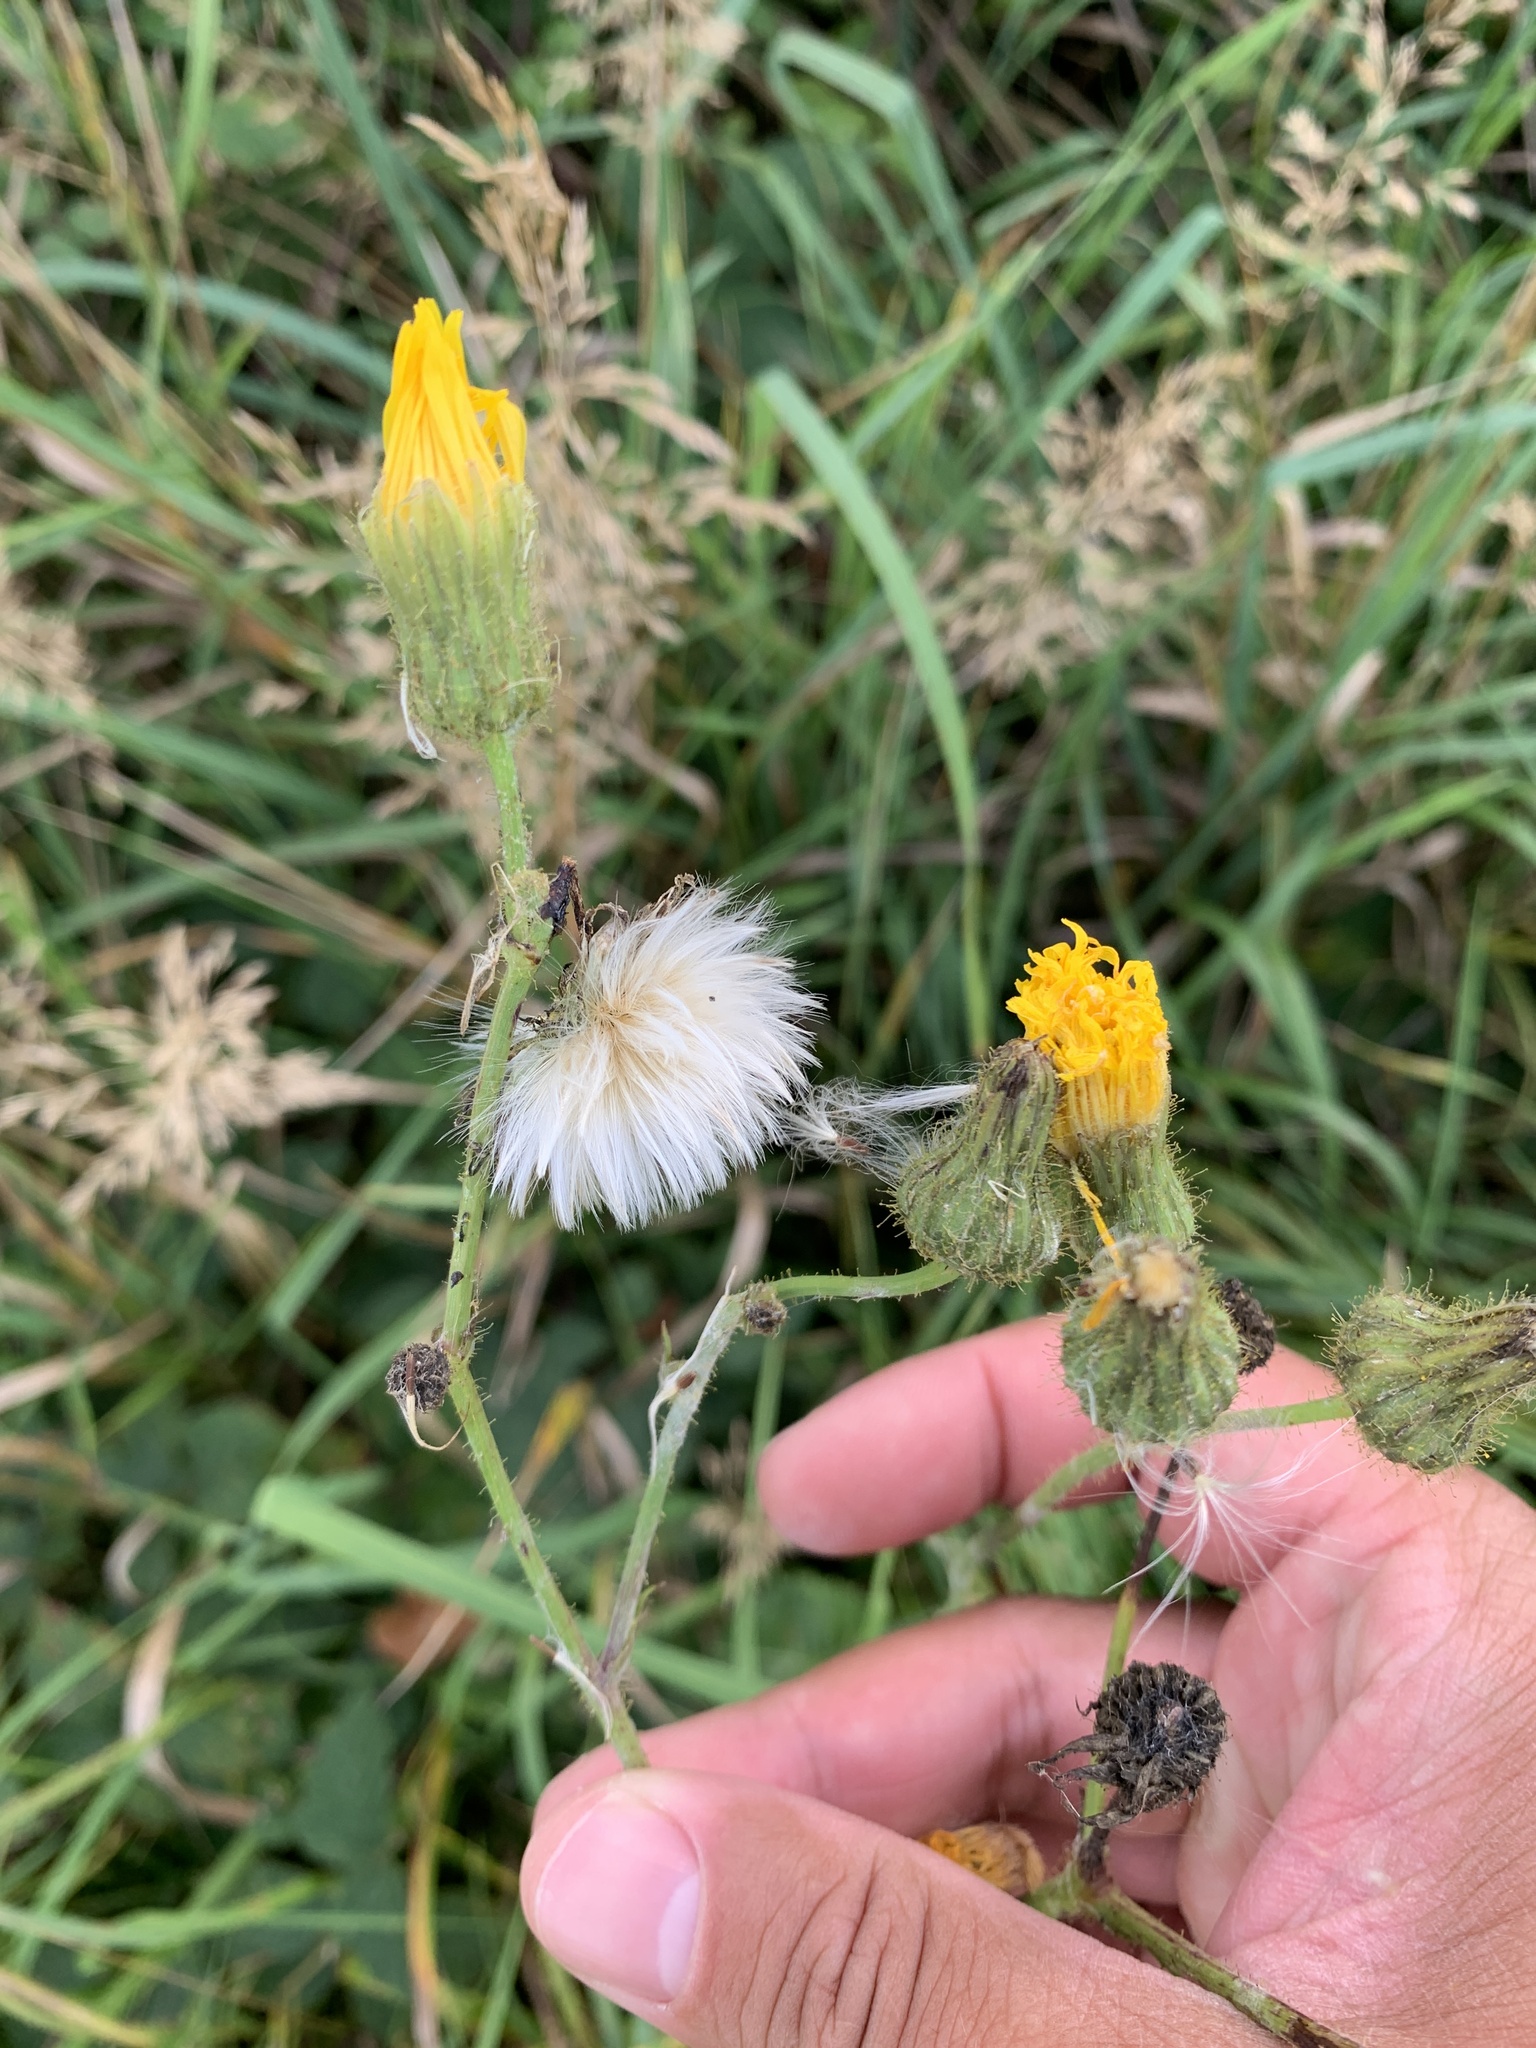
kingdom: Plantae
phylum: Tracheophyta
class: Magnoliopsida
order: Asterales
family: Asteraceae
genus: Sonchus
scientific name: Sonchus arvensis
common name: Perennial sow-thistle
